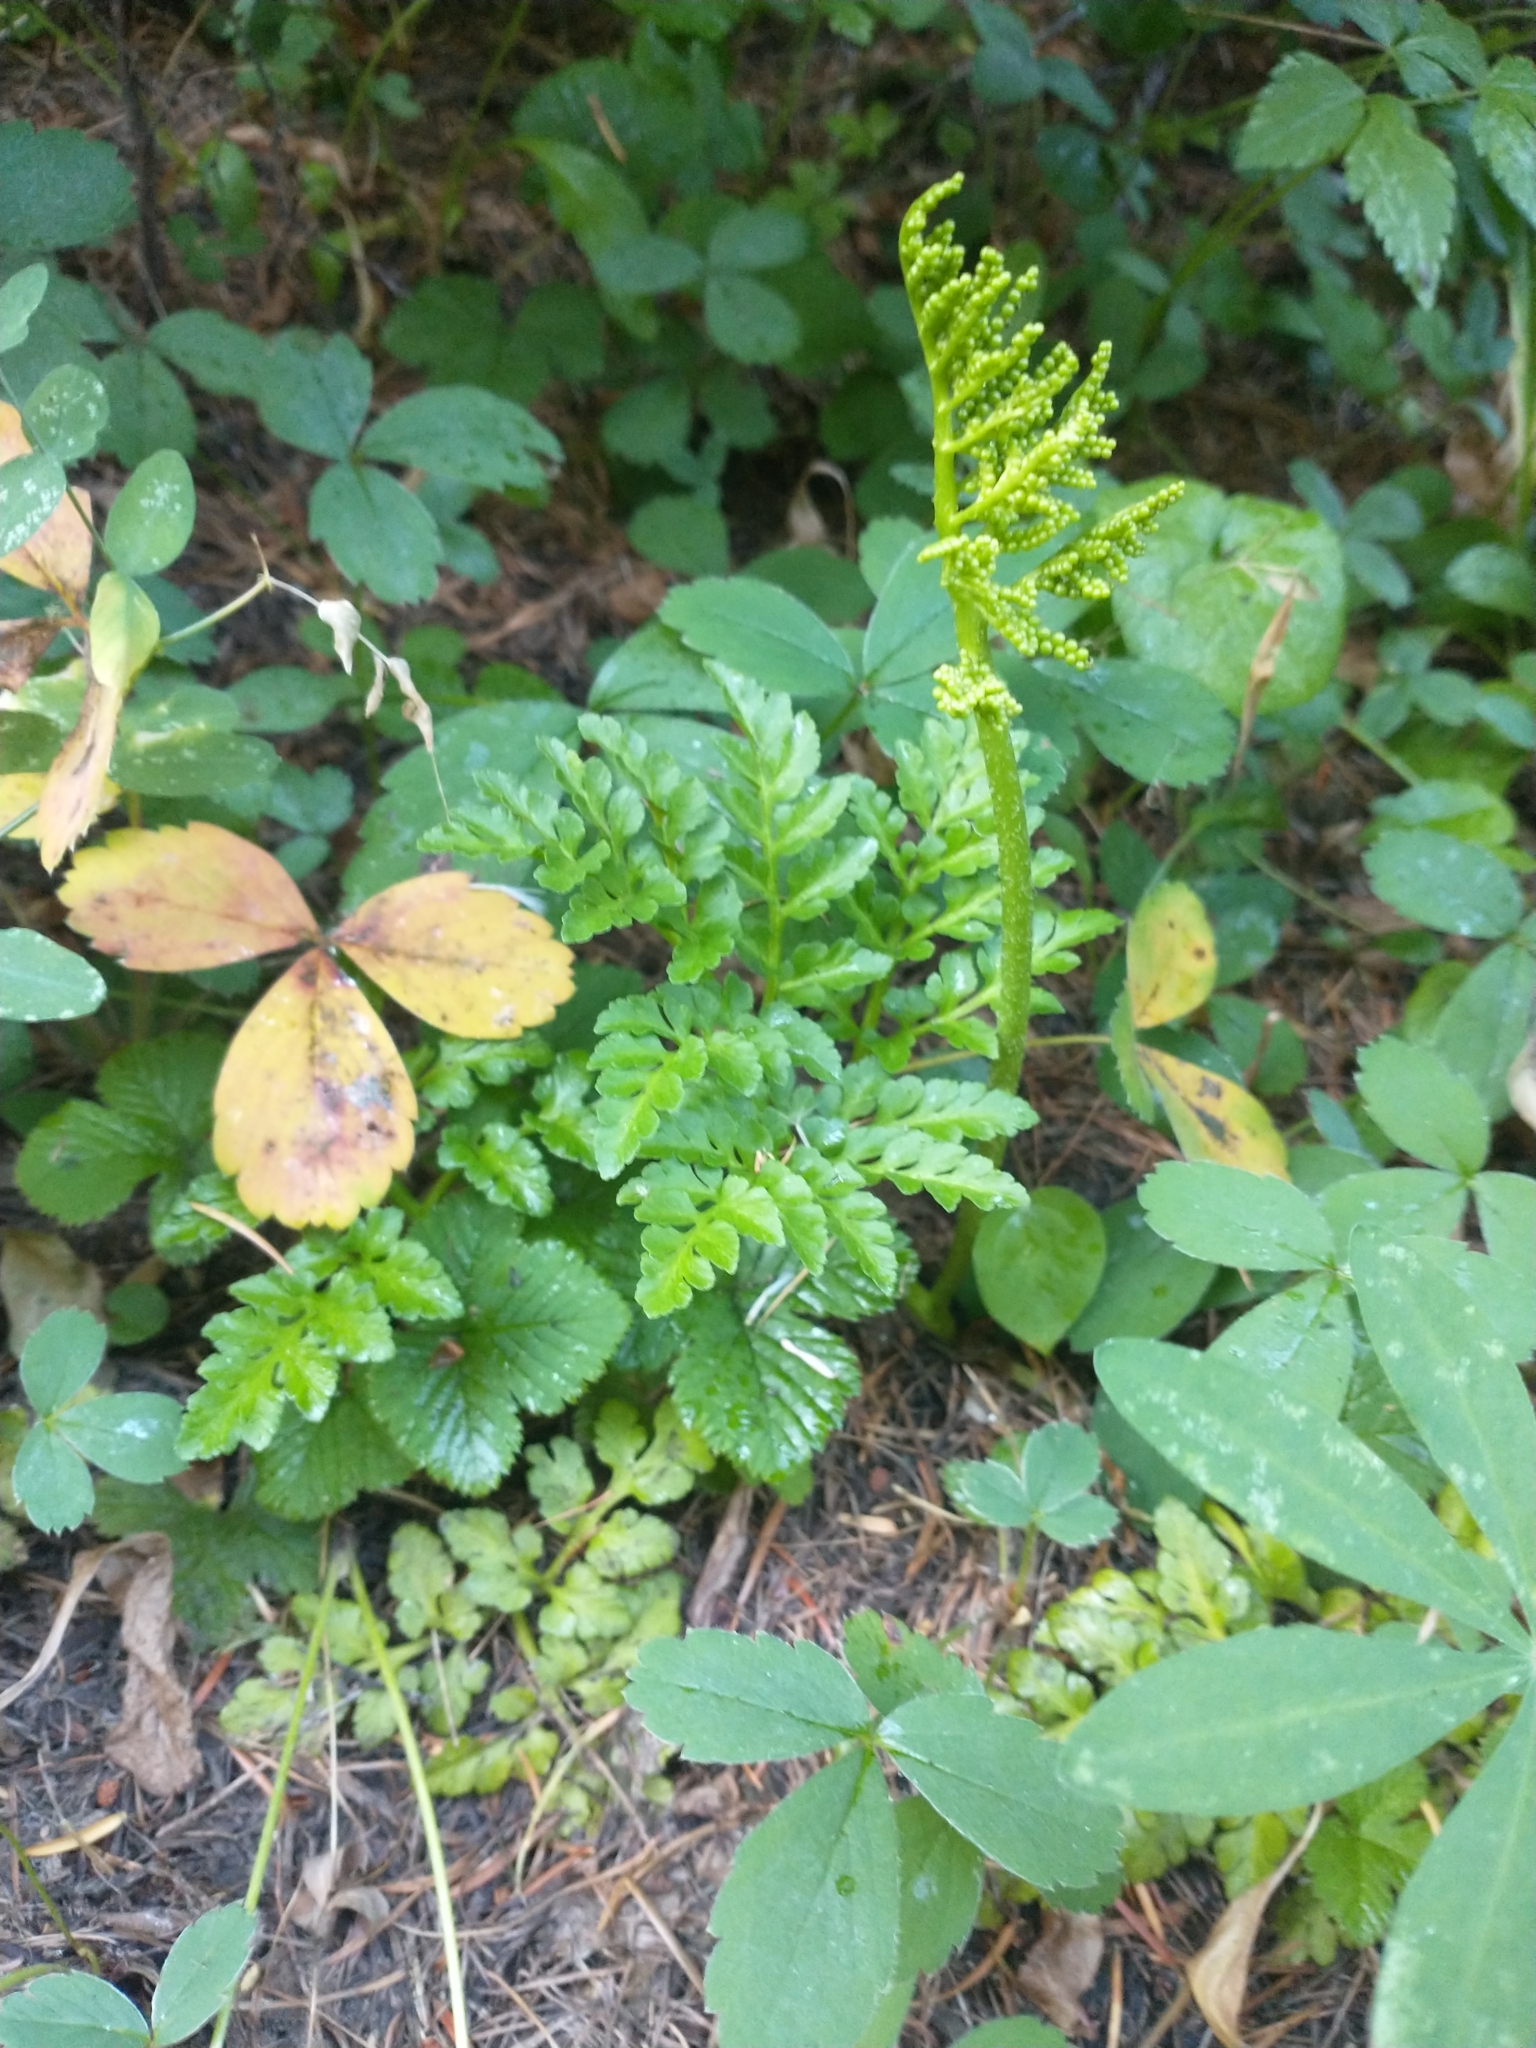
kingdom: Plantae
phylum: Tracheophyta
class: Polypodiopsida
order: Ophioglossales
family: Ophioglossaceae
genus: Sceptridium
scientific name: Sceptridium multifidum
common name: Leathery grape fern
